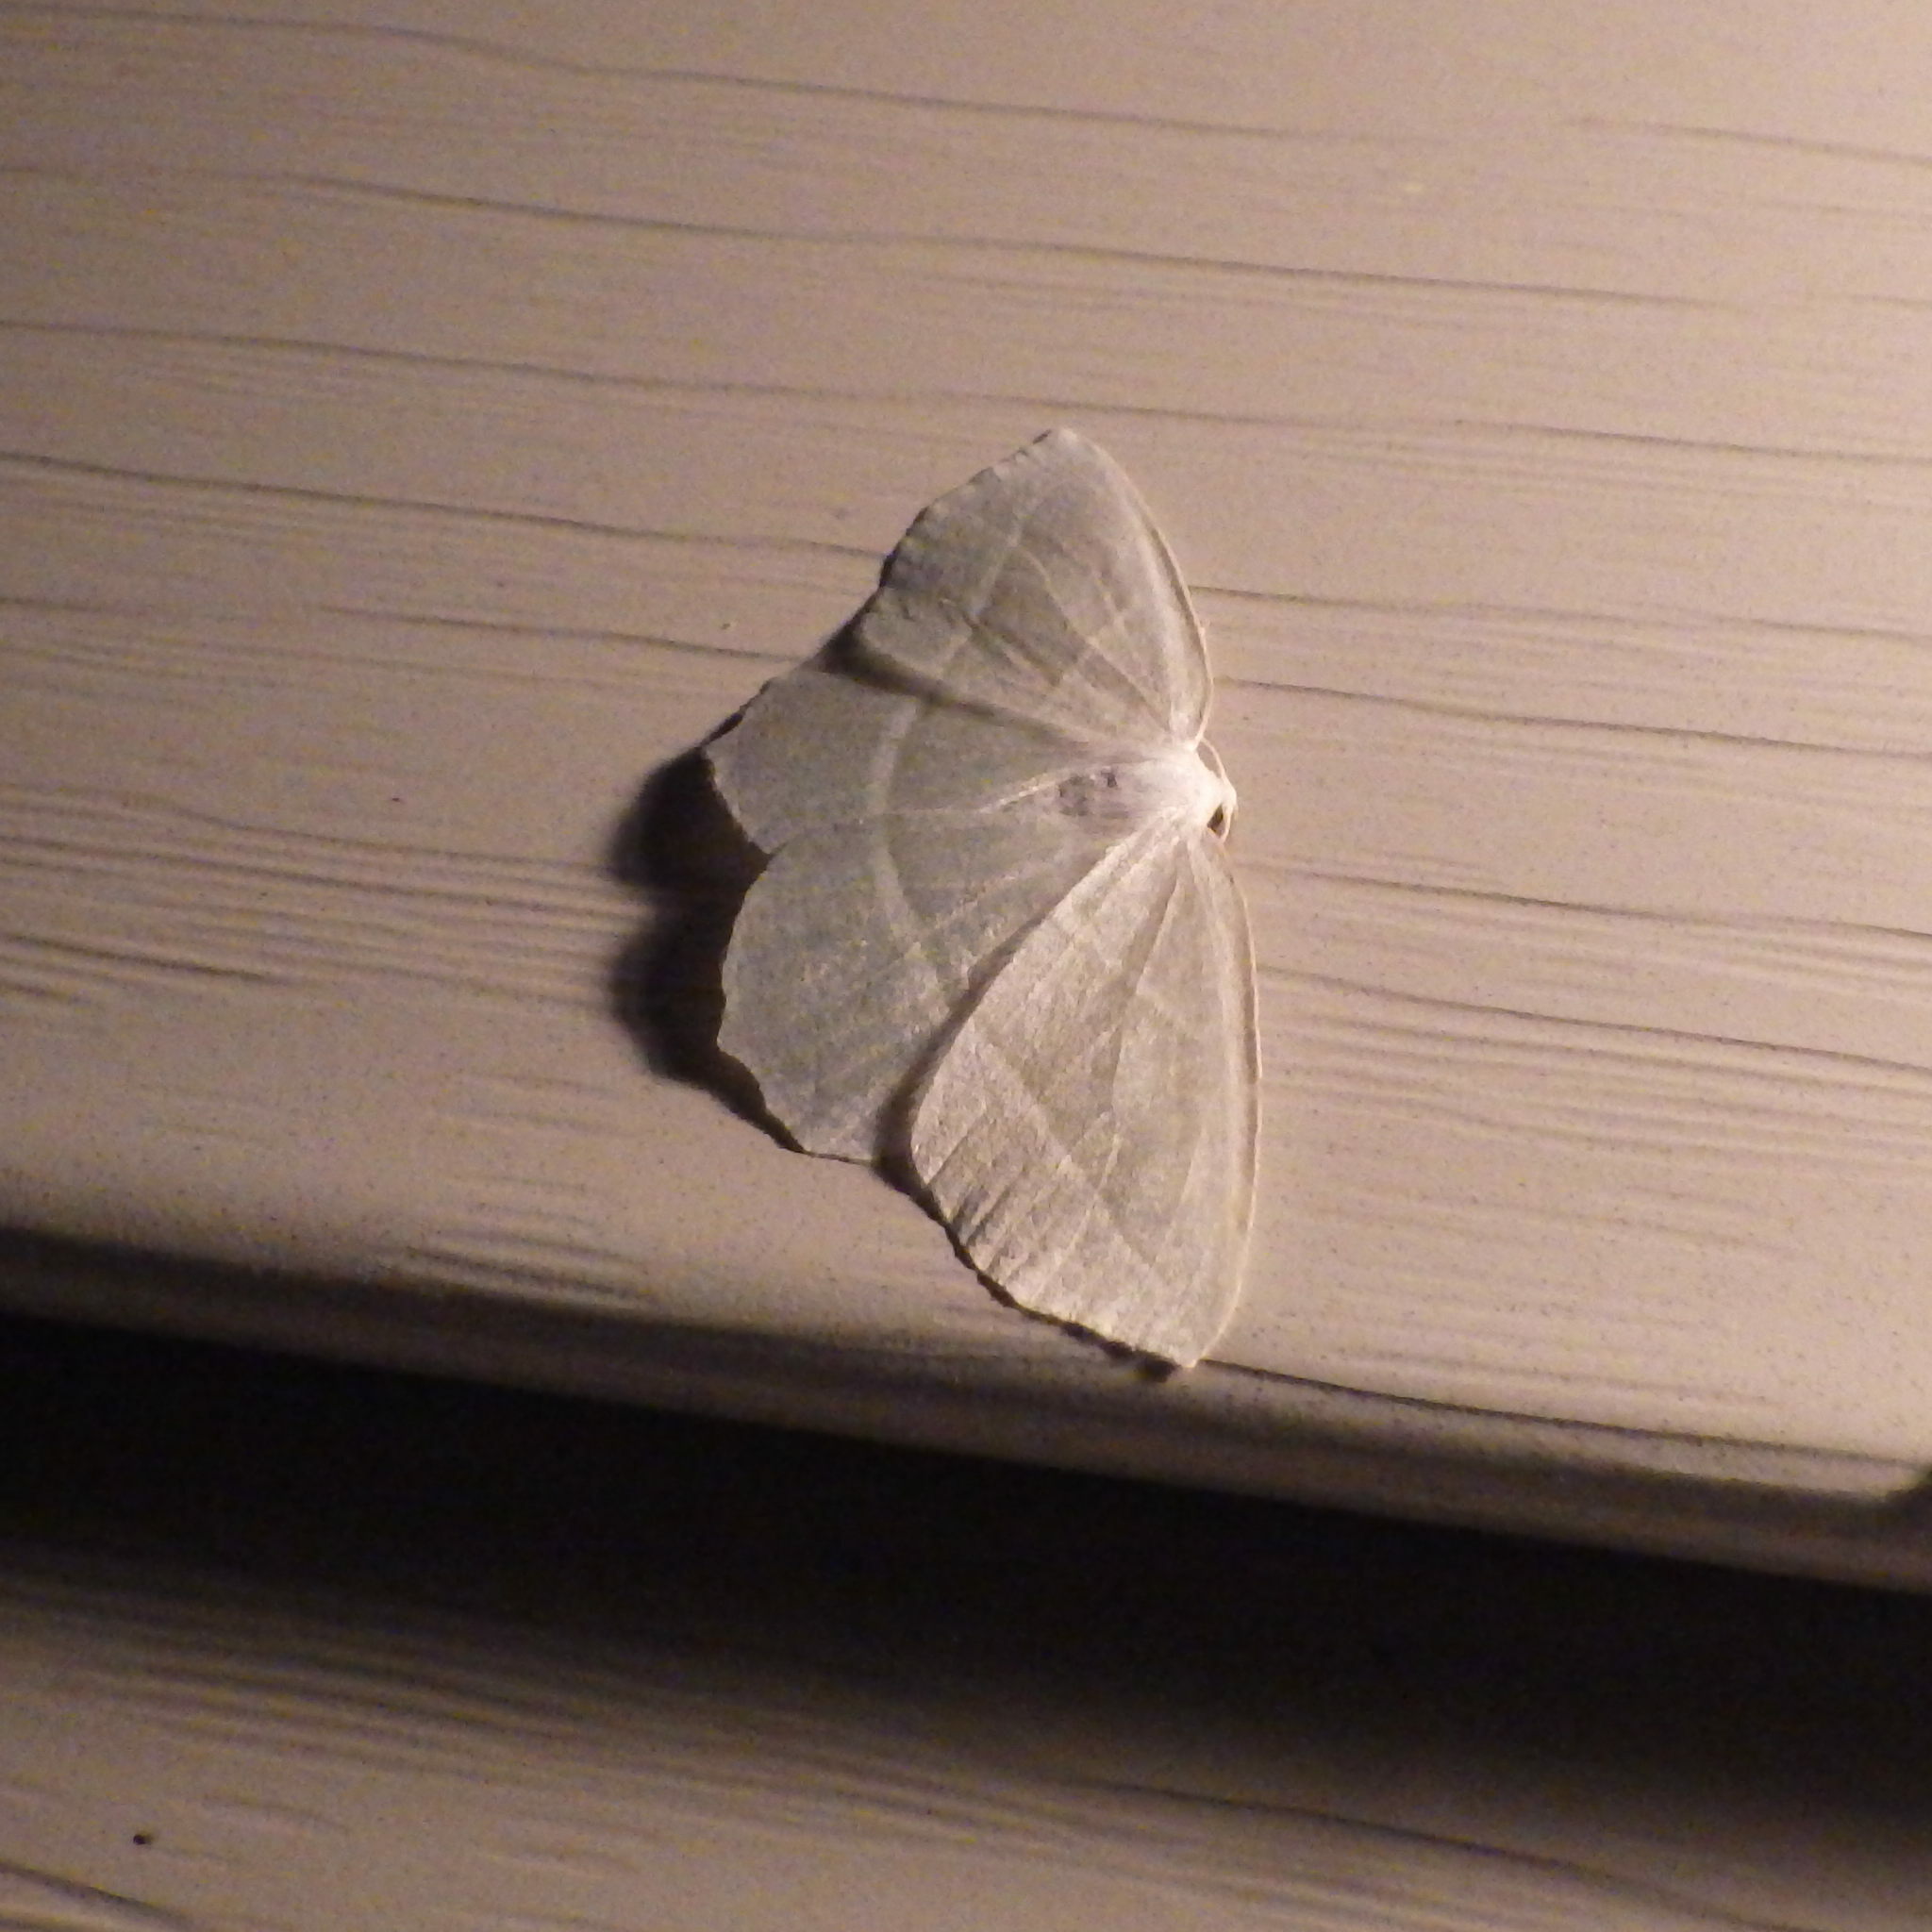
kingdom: Animalia
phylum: Arthropoda
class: Insecta
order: Lepidoptera
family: Geometridae
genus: Campaea
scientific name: Campaea perlata
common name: Fringed looper
